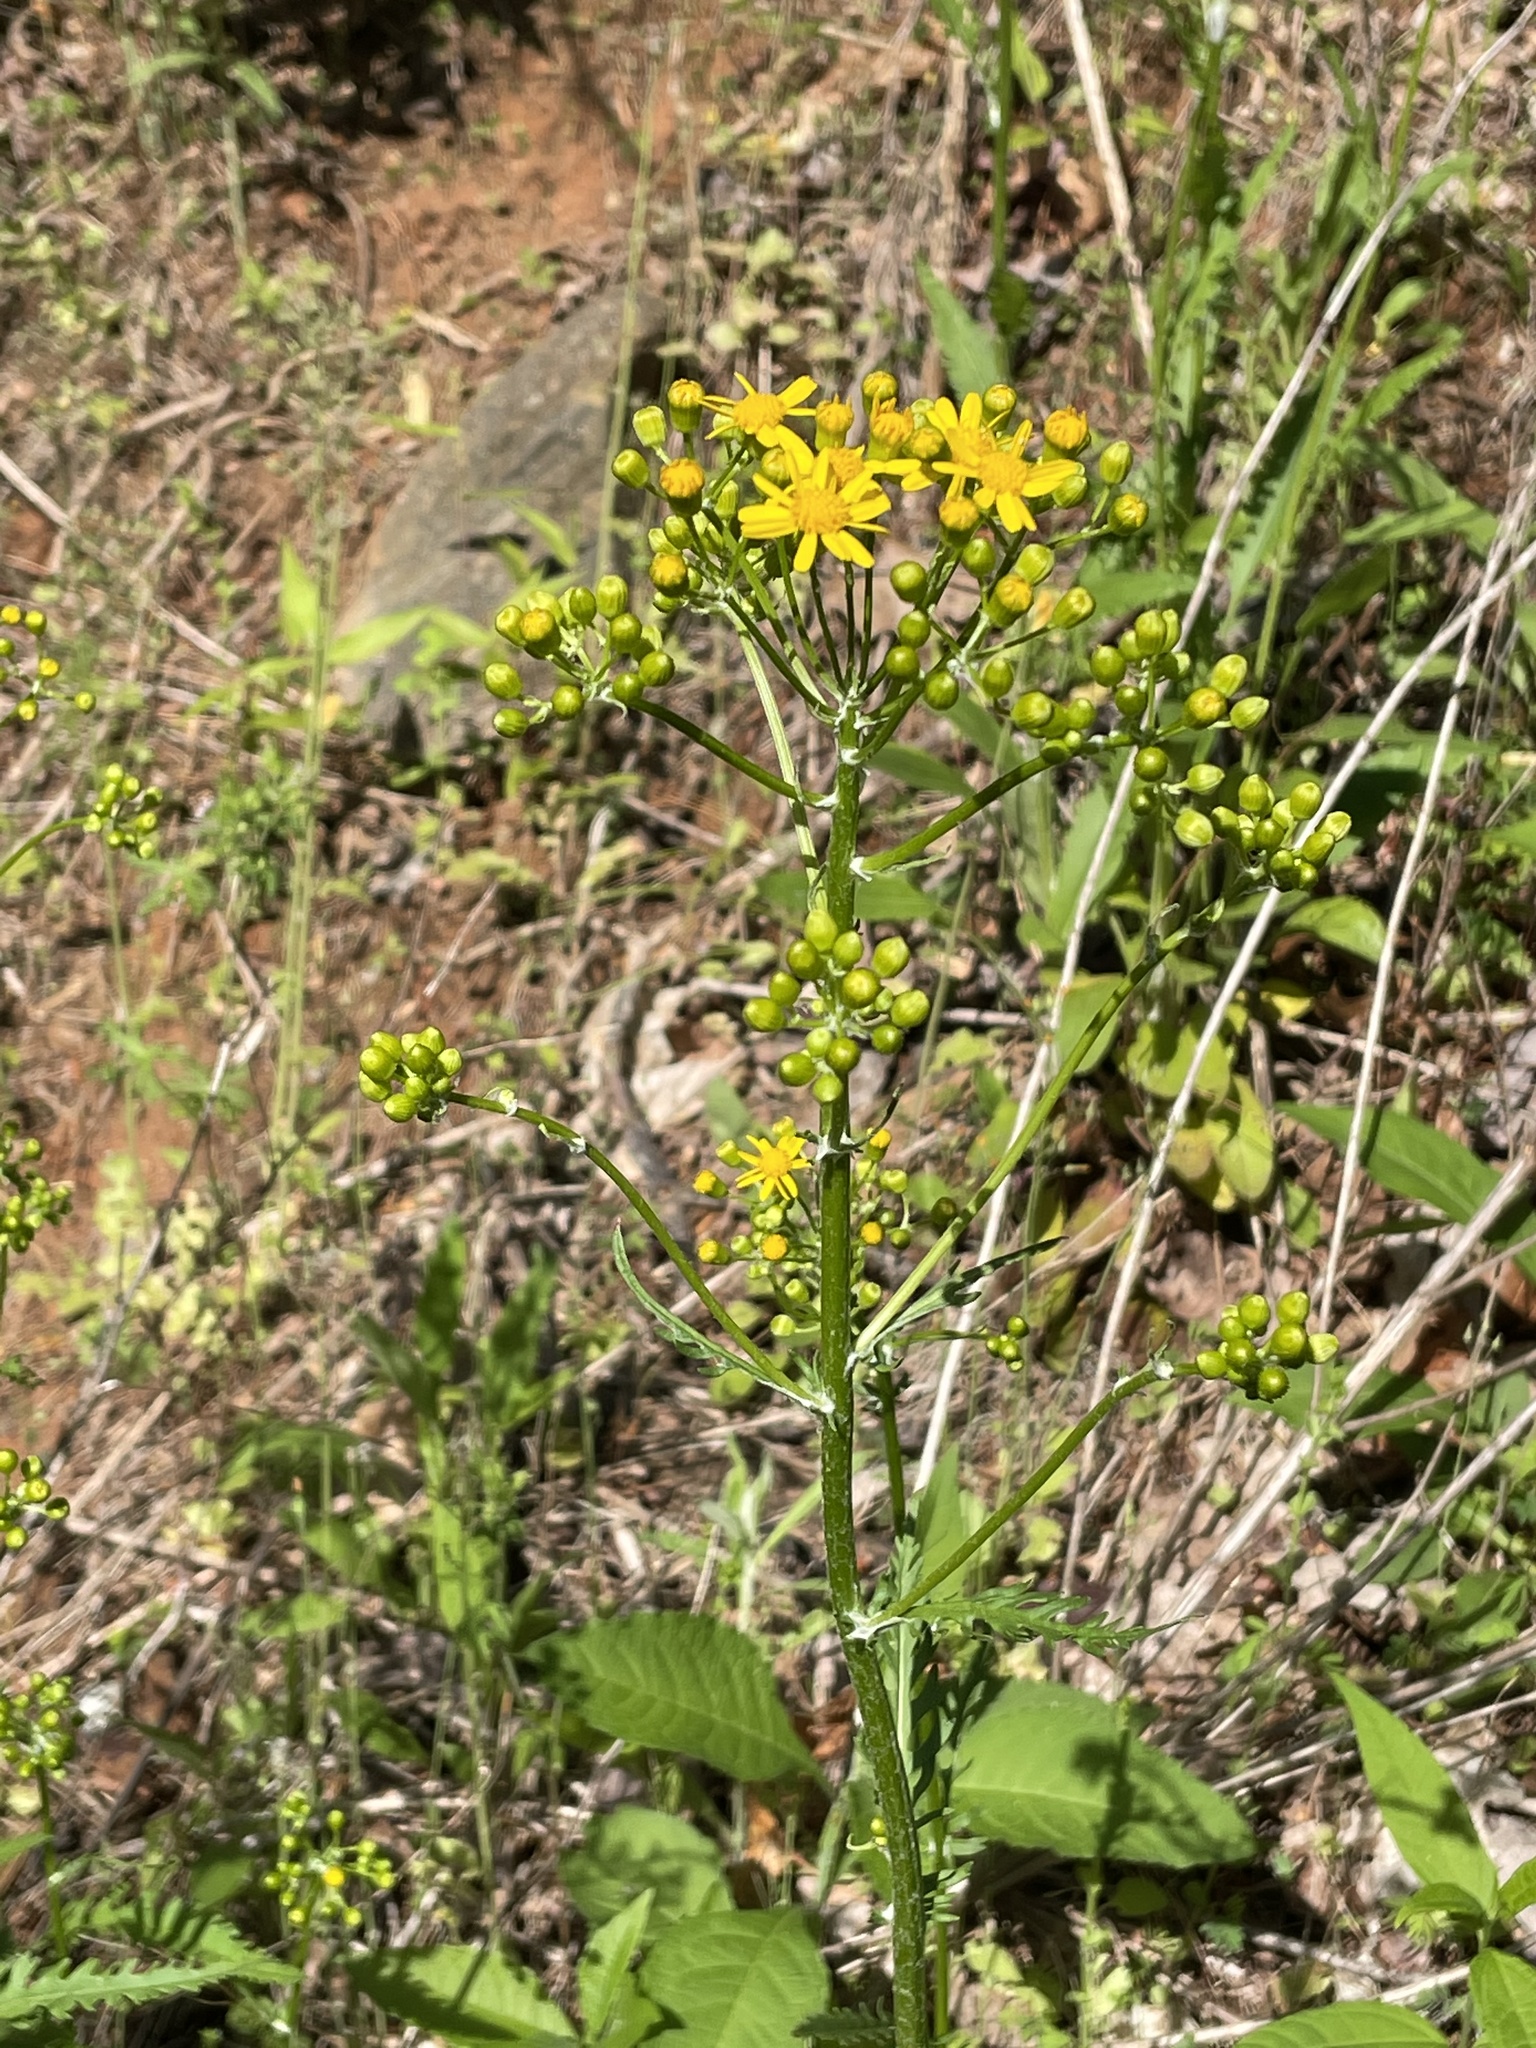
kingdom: Plantae
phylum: Tracheophyta
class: Magnoliopsida
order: Asterales
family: Asteraceae
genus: Packera
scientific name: Packera anonyma
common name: Small ragwort
